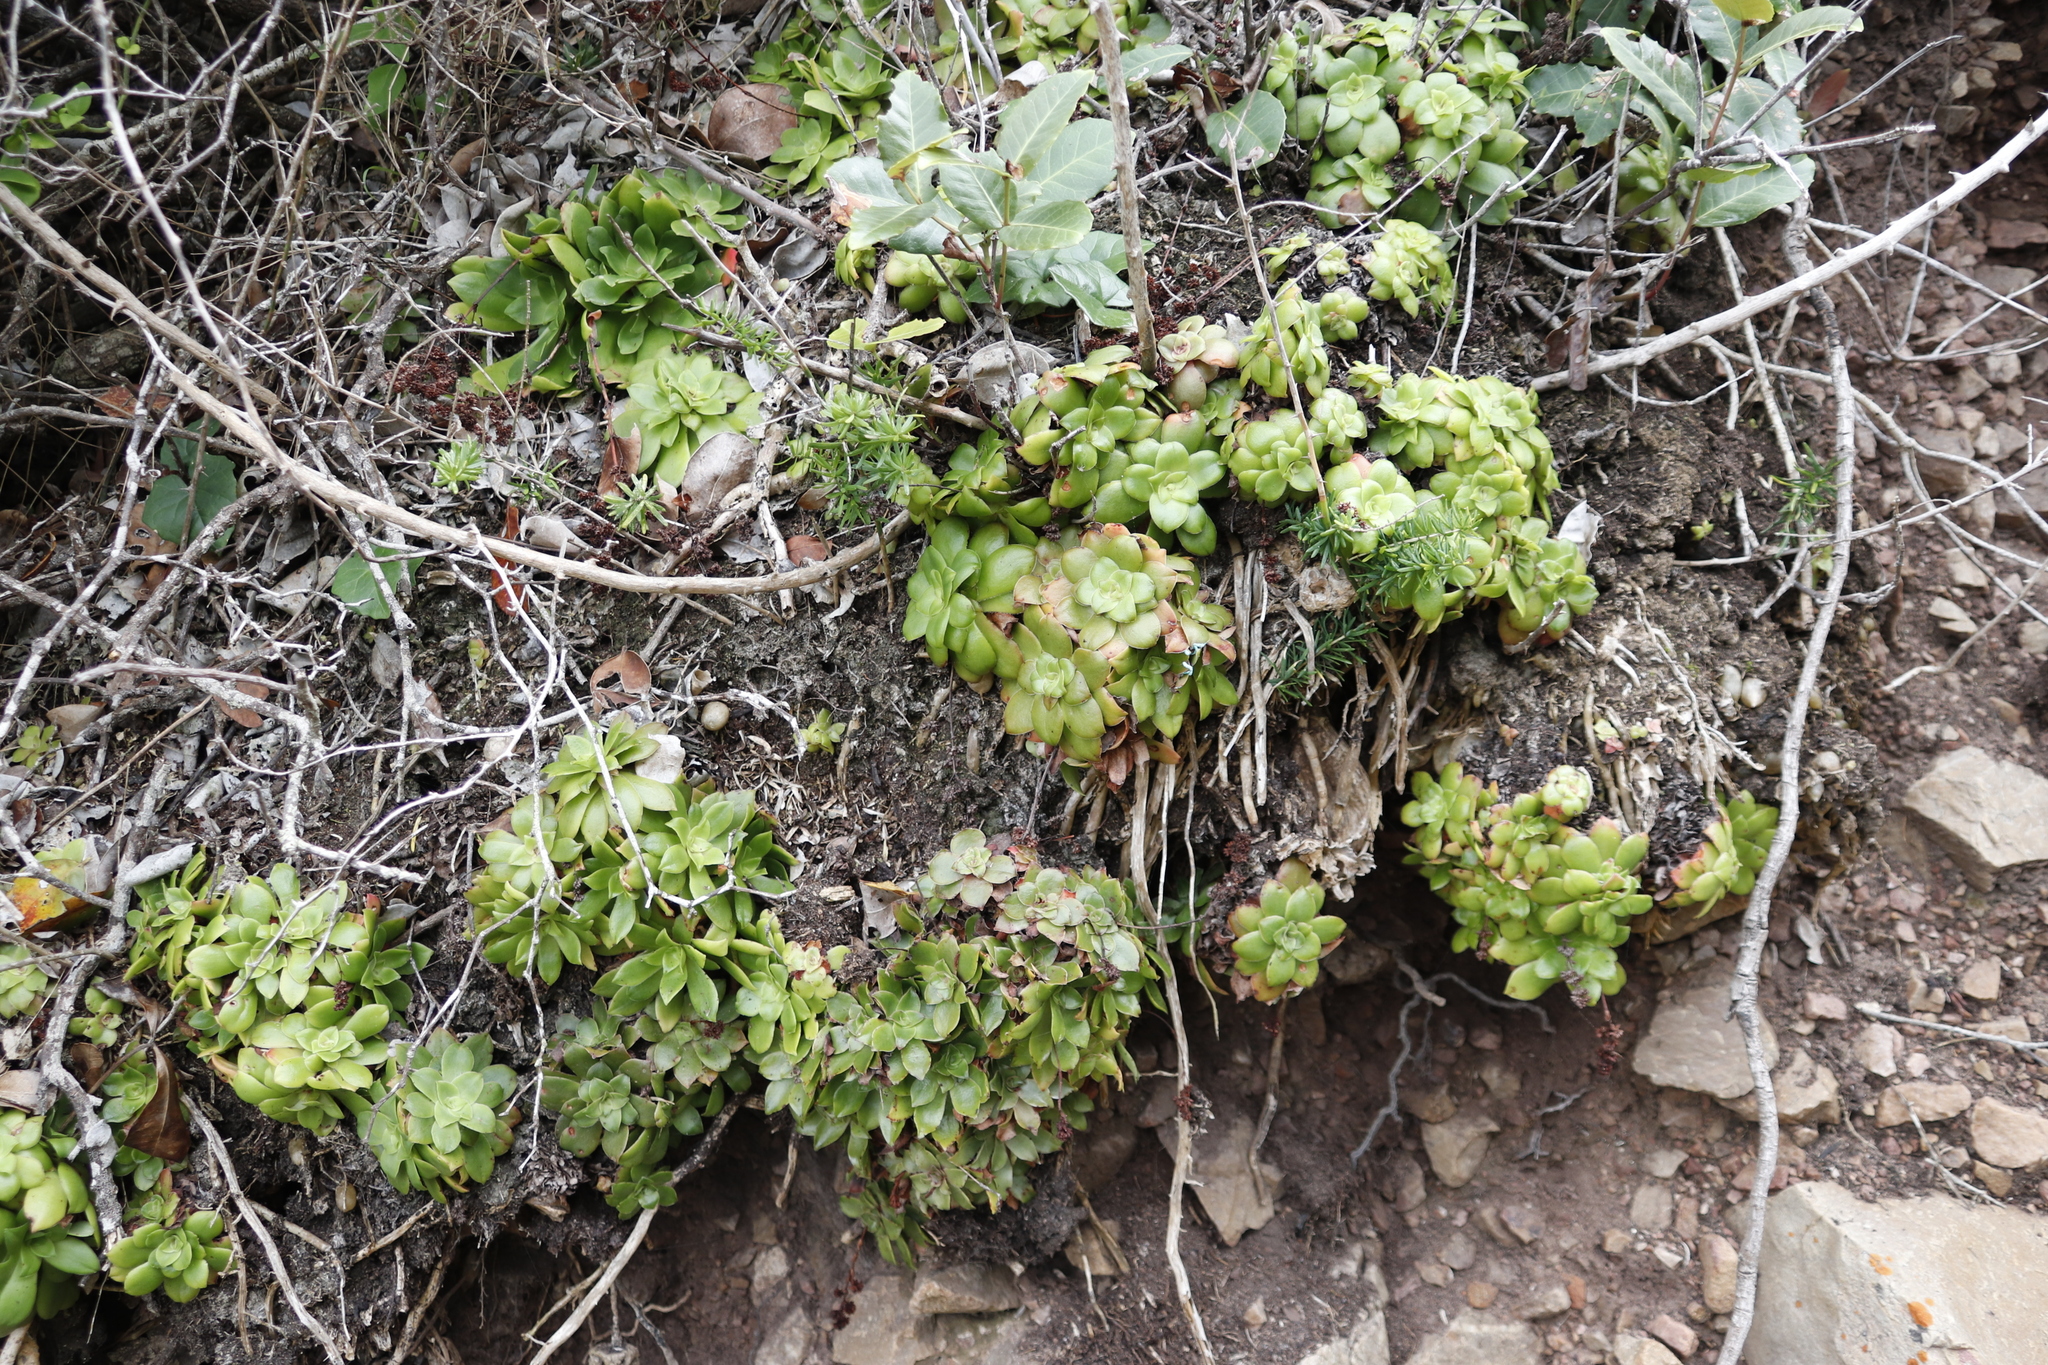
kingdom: Plantae
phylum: Tracheophyta
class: Magnoliopsida
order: Saxifragales
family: Crassulaceae
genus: Crassula
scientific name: Crassula orbicularis
